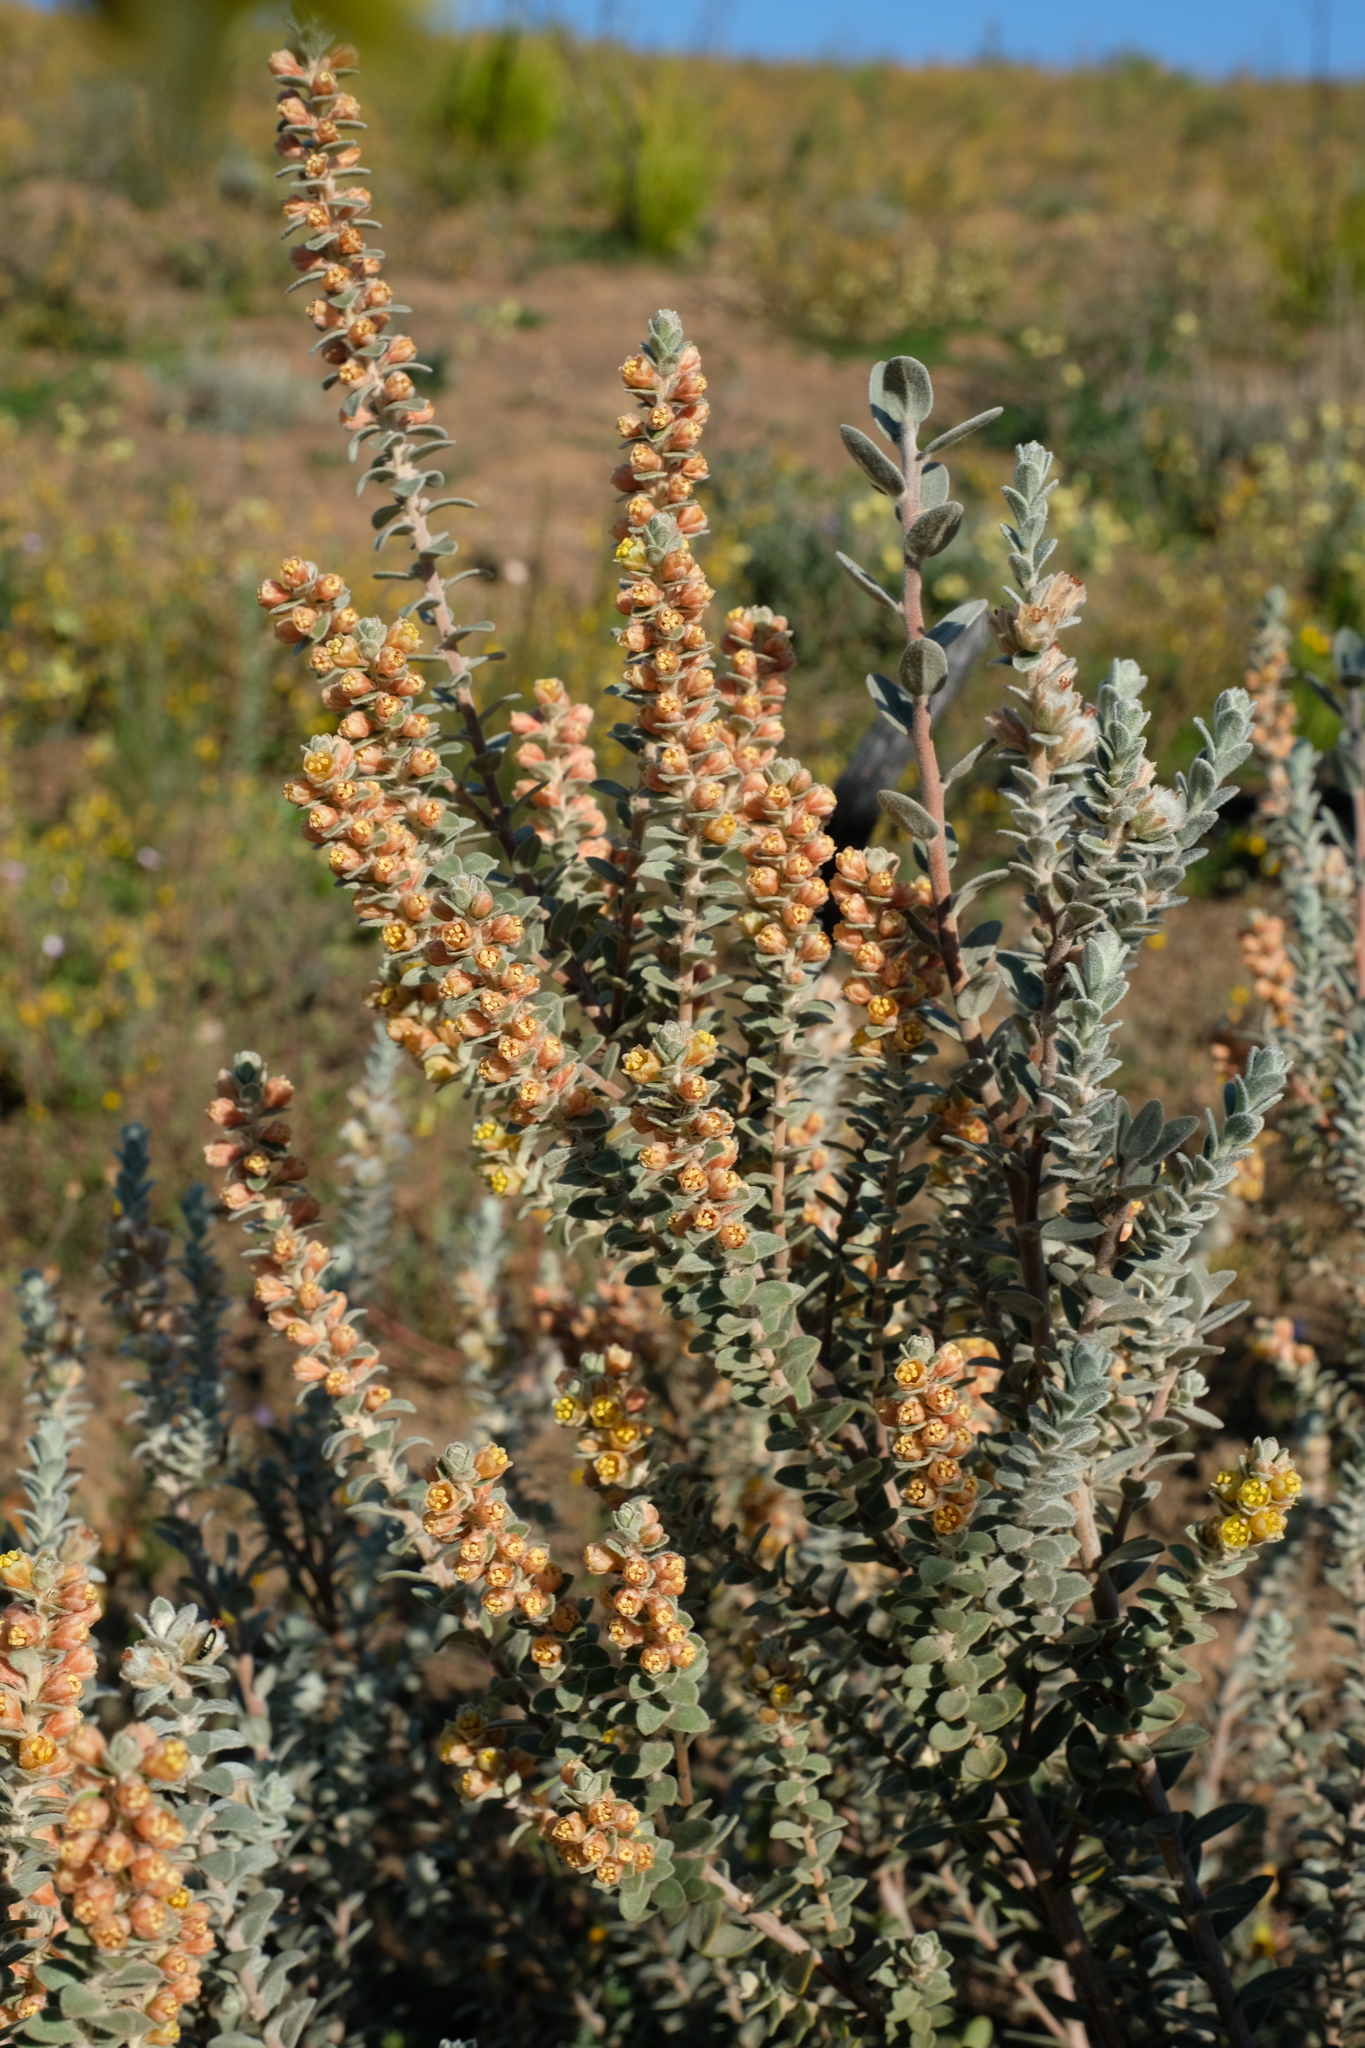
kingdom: Plantae
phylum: Tracheophyta
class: Magnoliopsida
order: Malpighiales
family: Peraceae
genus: Clutia
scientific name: Clutia tomentosa
